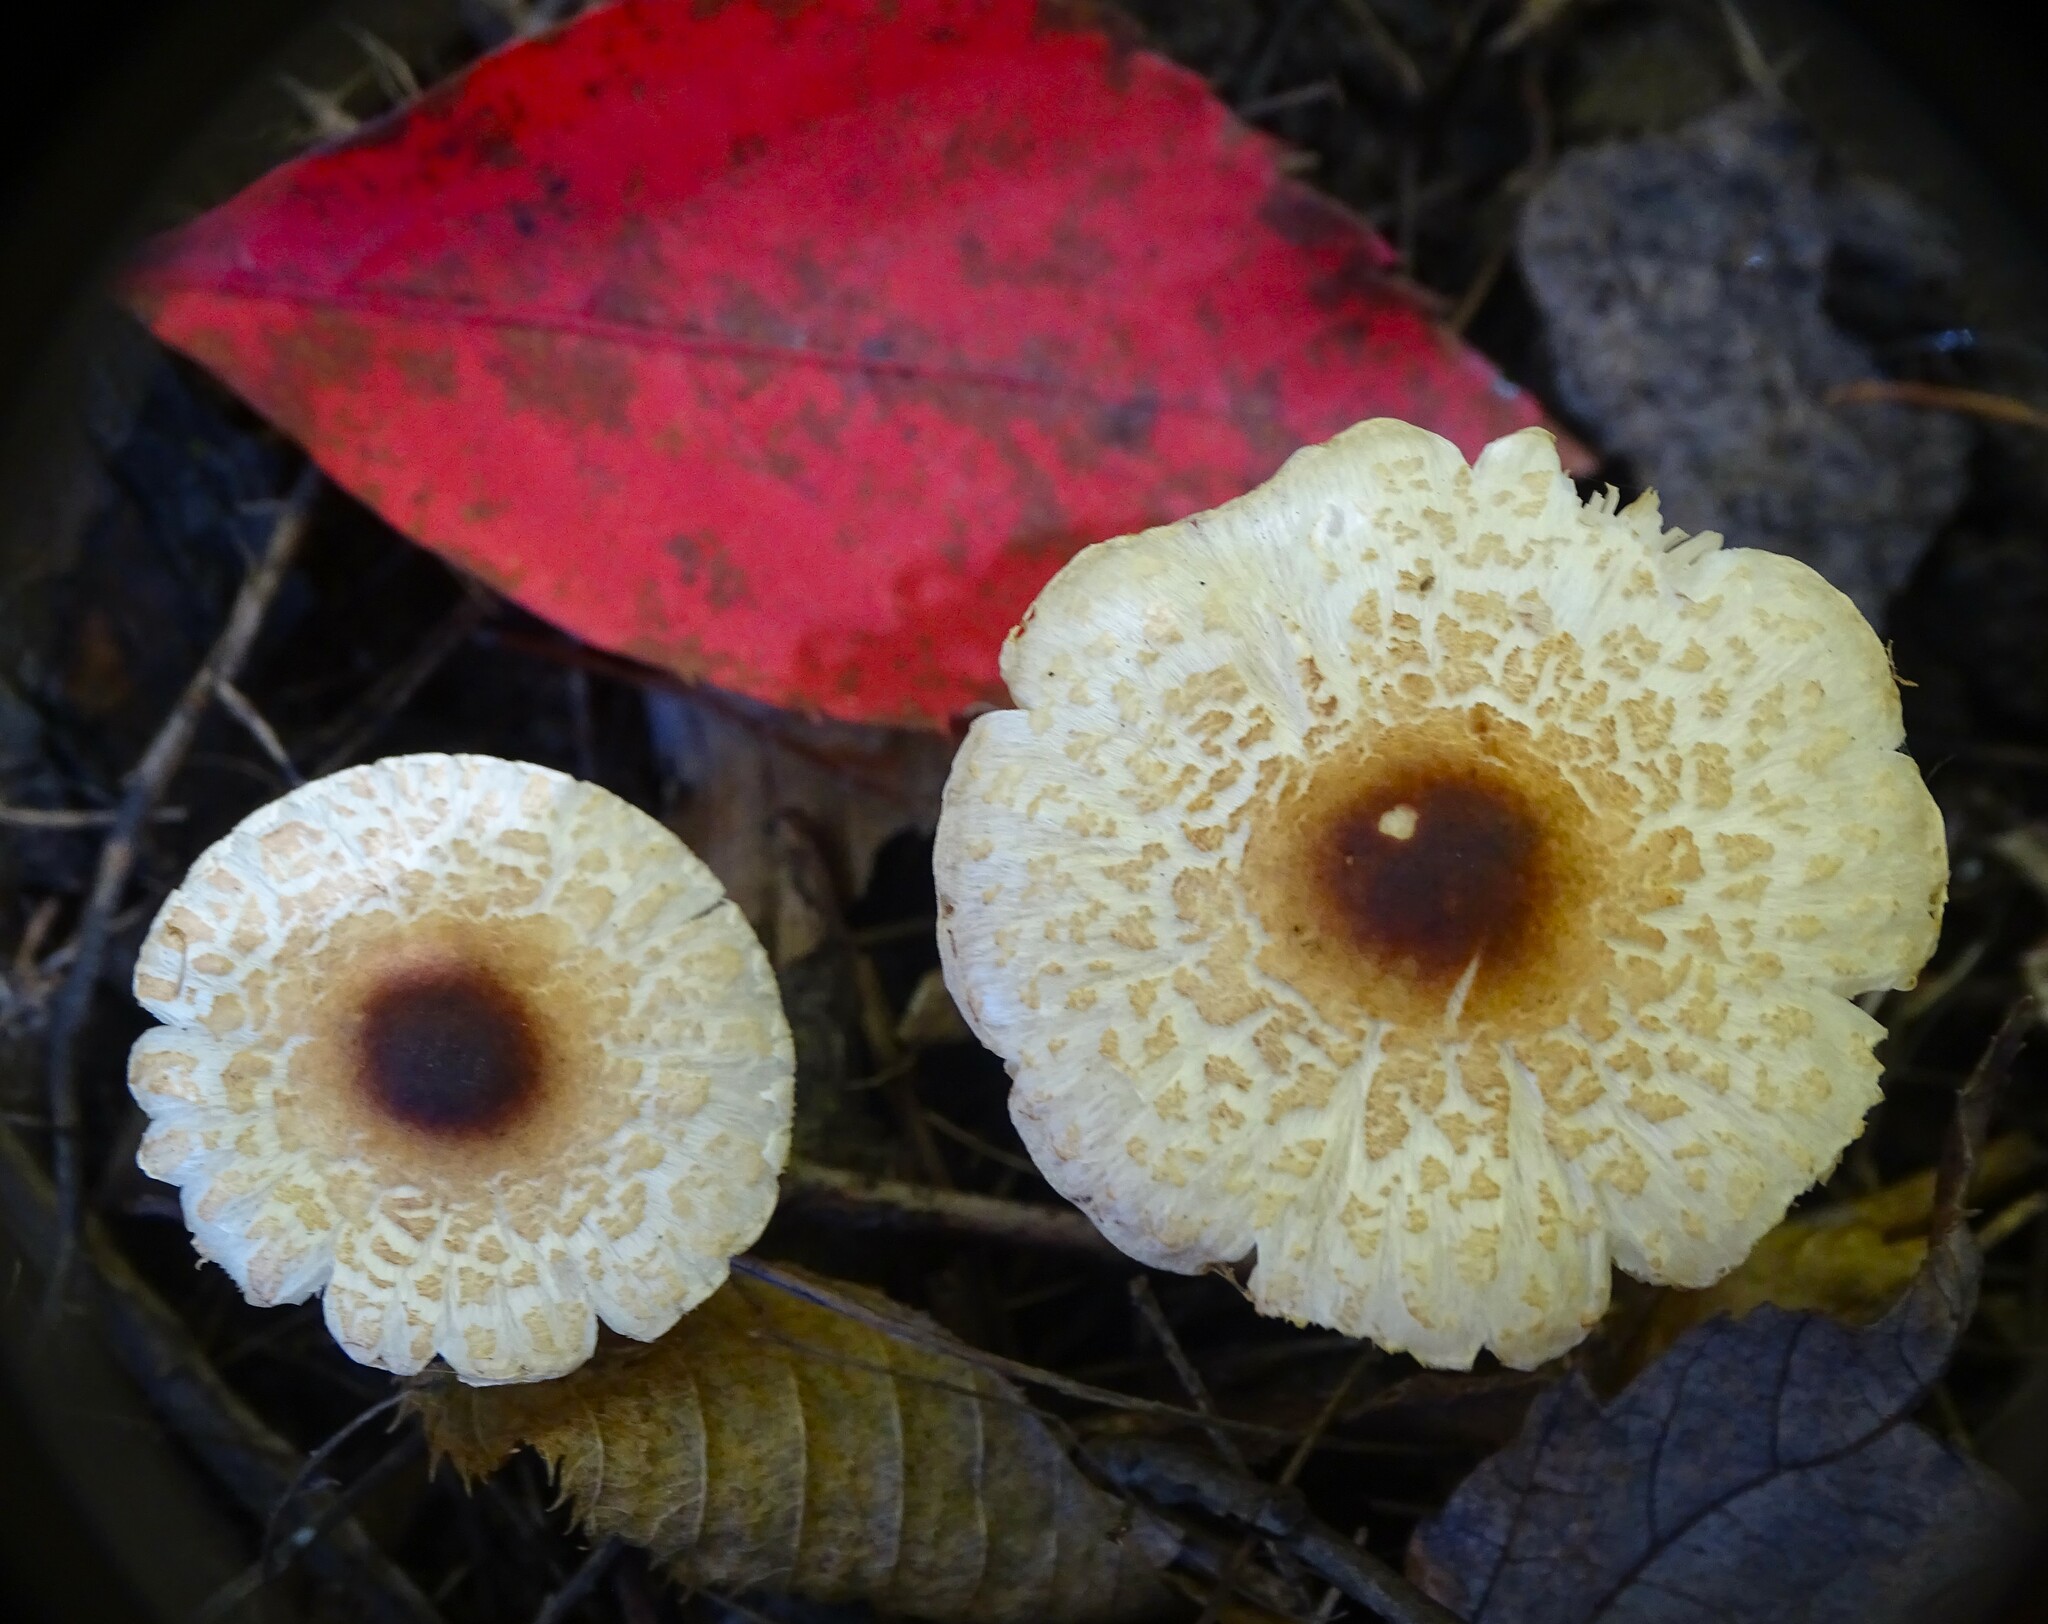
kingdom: Fungi
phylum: Basidiomycota
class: Agaricomycetes
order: Agaricales
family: Agaricaceae
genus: Lepiota
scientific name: Lepiota cristata
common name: Stinking dapperling
